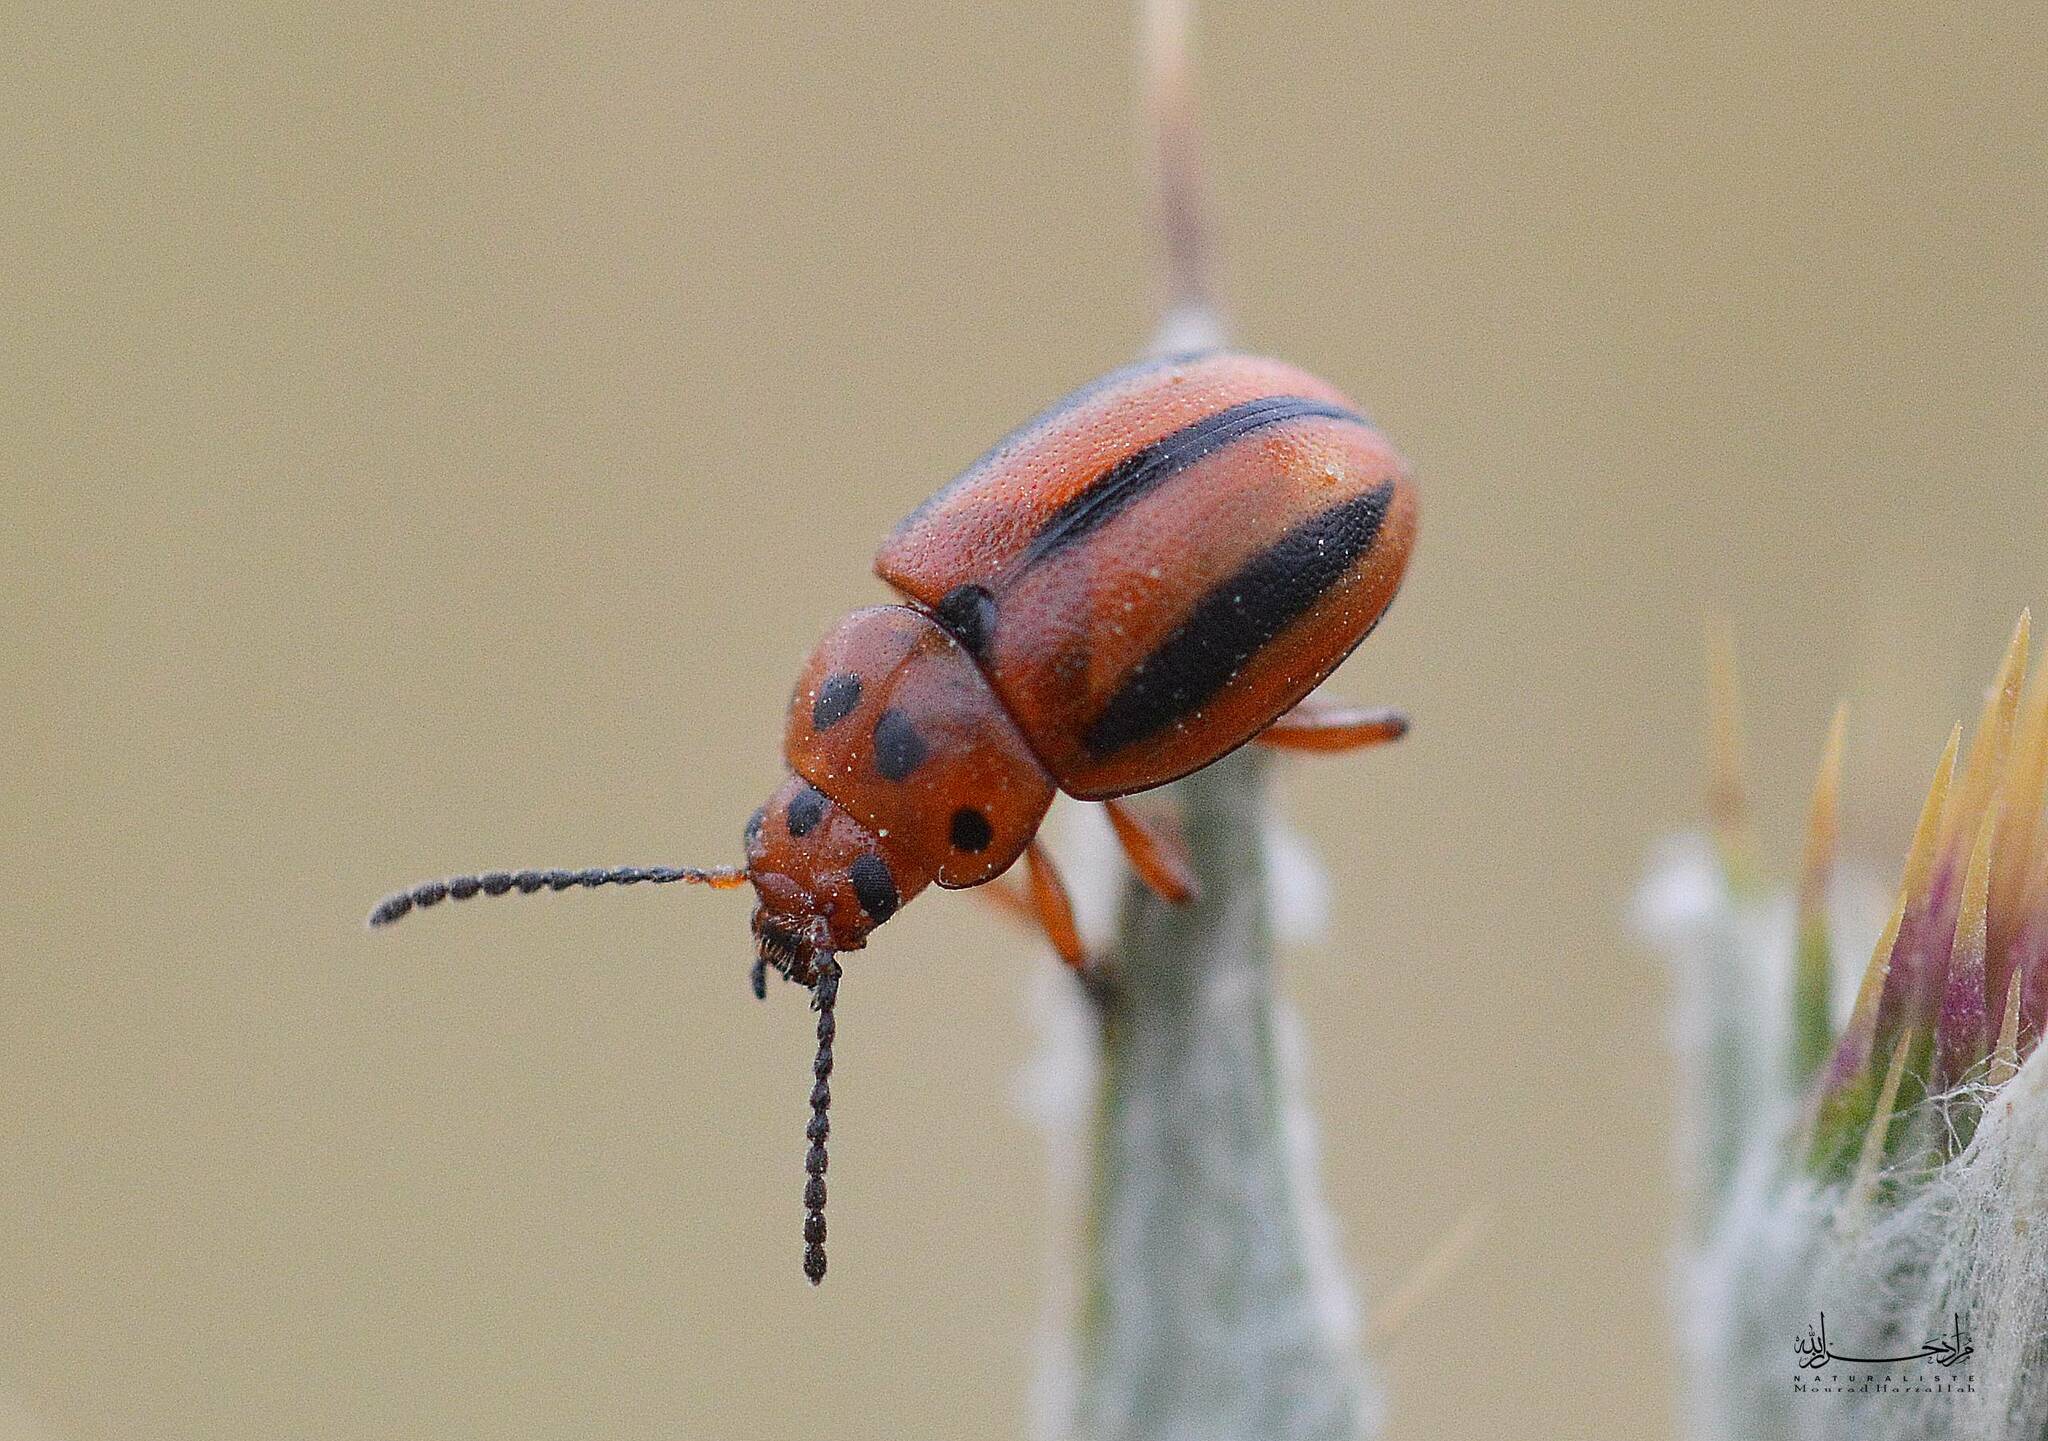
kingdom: Animalia
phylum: Arthropoda
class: Insecta
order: Coleoptera
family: Chrysomelidae
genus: Entomoscelis
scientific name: Entomoscelis rumicis
